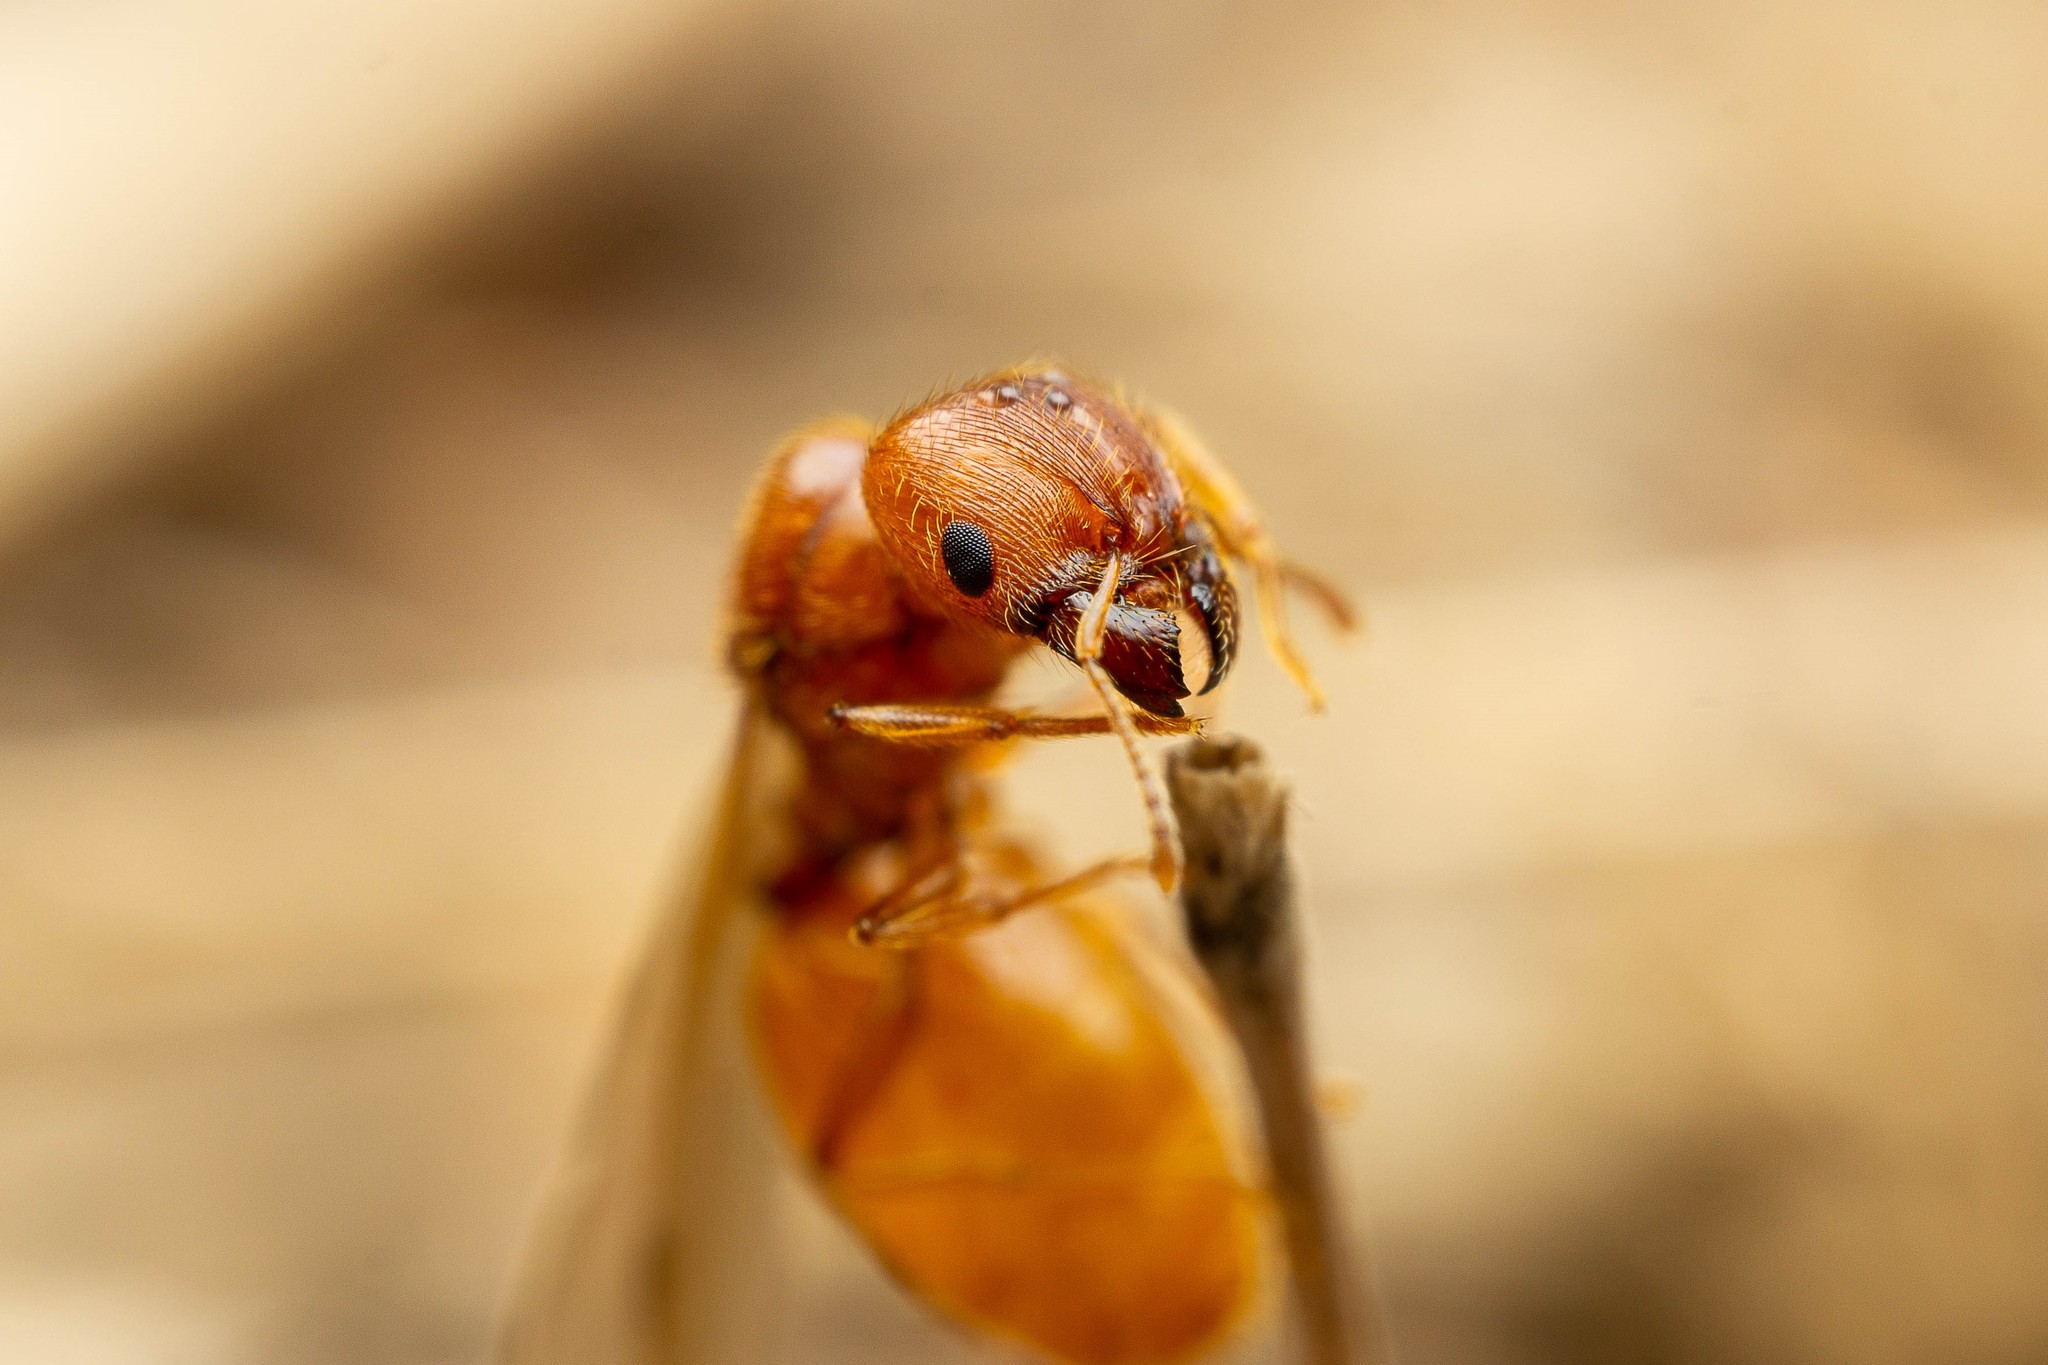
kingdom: Animalia
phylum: Arthropoda
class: Insecta
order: Hymenoptera
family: Formicidae
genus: Pheidole
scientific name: Pheidole spadonia
